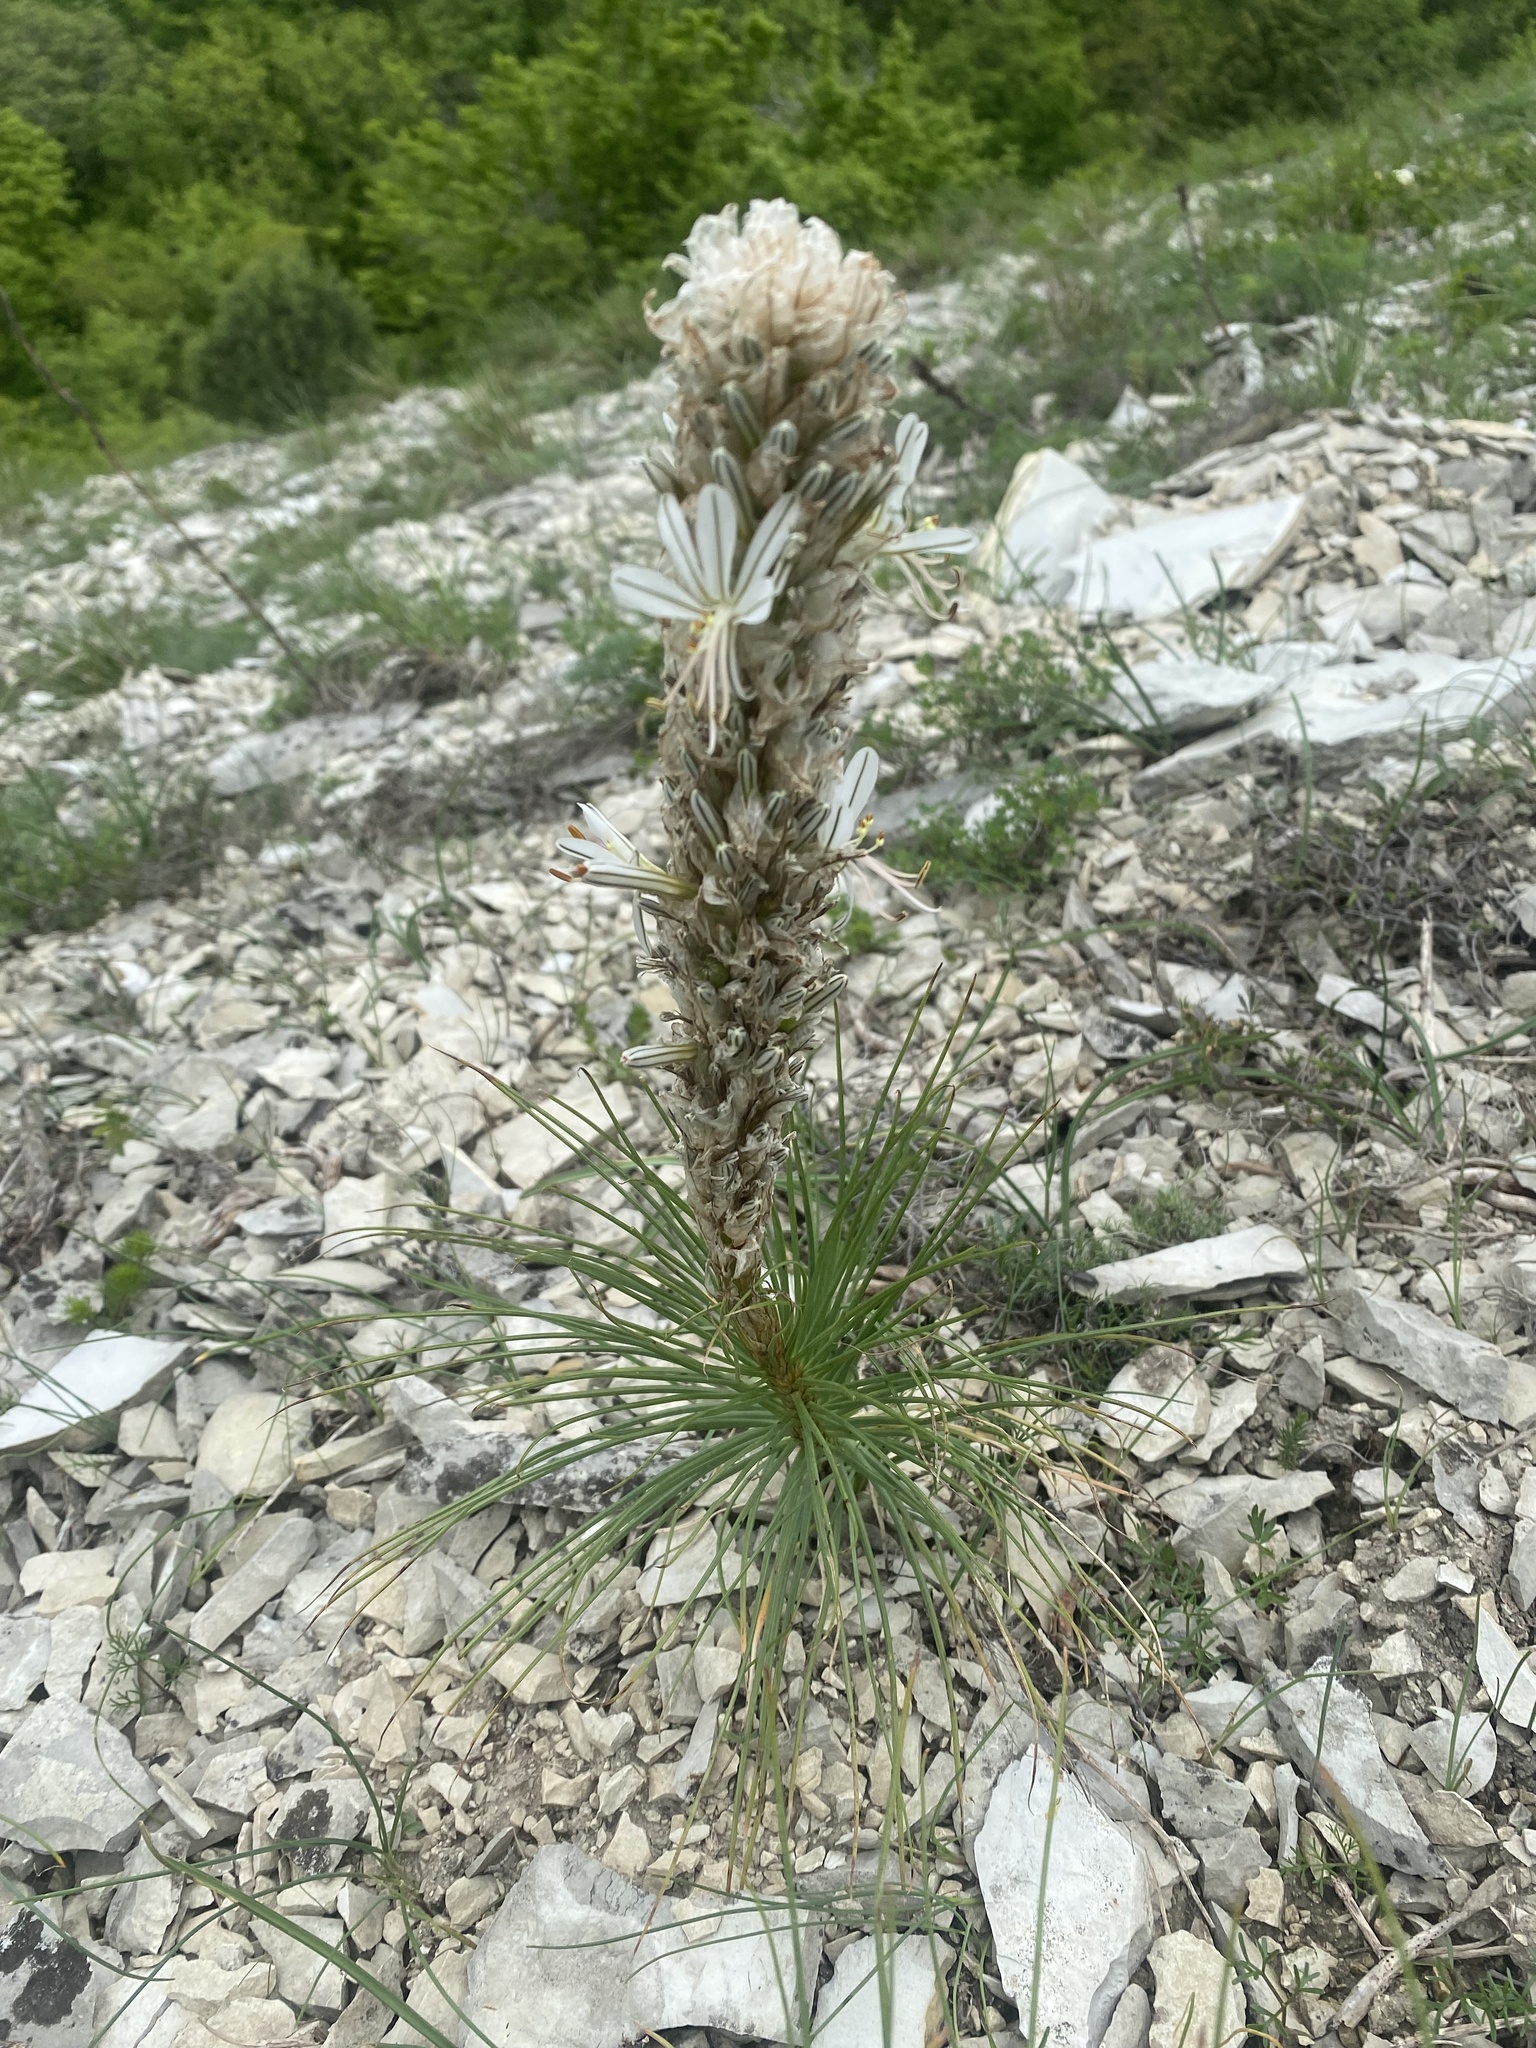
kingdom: Plantae
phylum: Tracheophyta
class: Liliopsida
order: Asparagales
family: Asphodelaceae
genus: Asphodeline
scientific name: Asphodeline taurica
